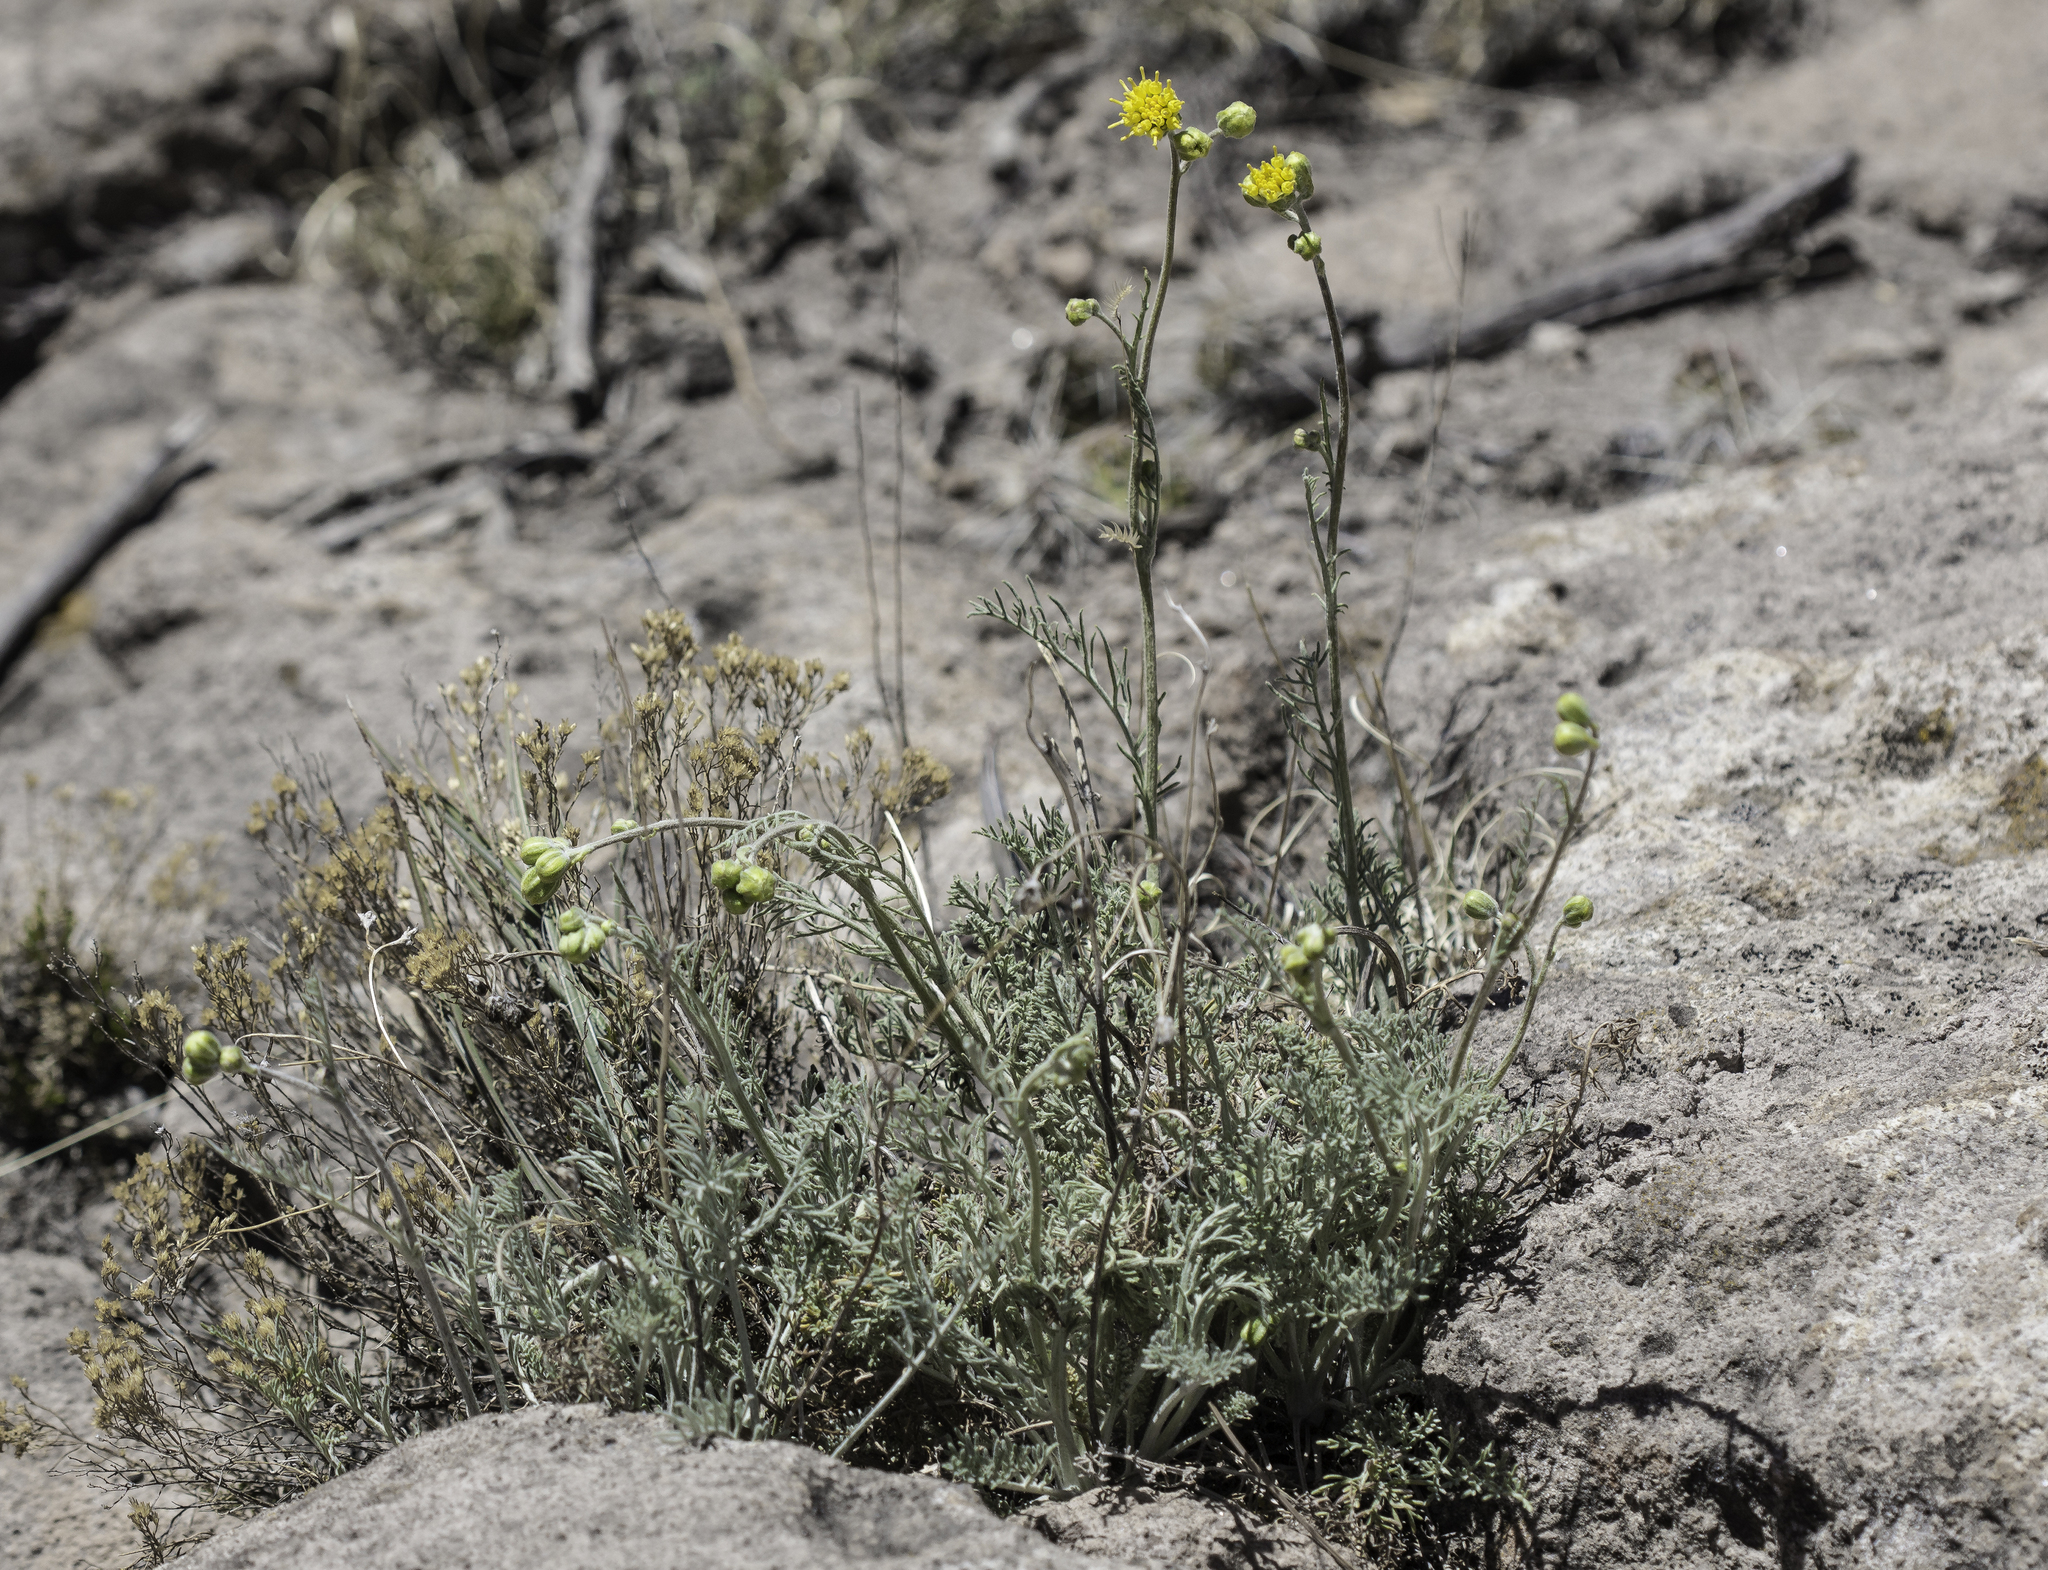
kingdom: Plantae
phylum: Tracheophyta
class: Magnoliopsida
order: Asterales
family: Asteraceae
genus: Hymenopappus
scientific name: Hymenopappus filifolius
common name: Columbia cutleaf
